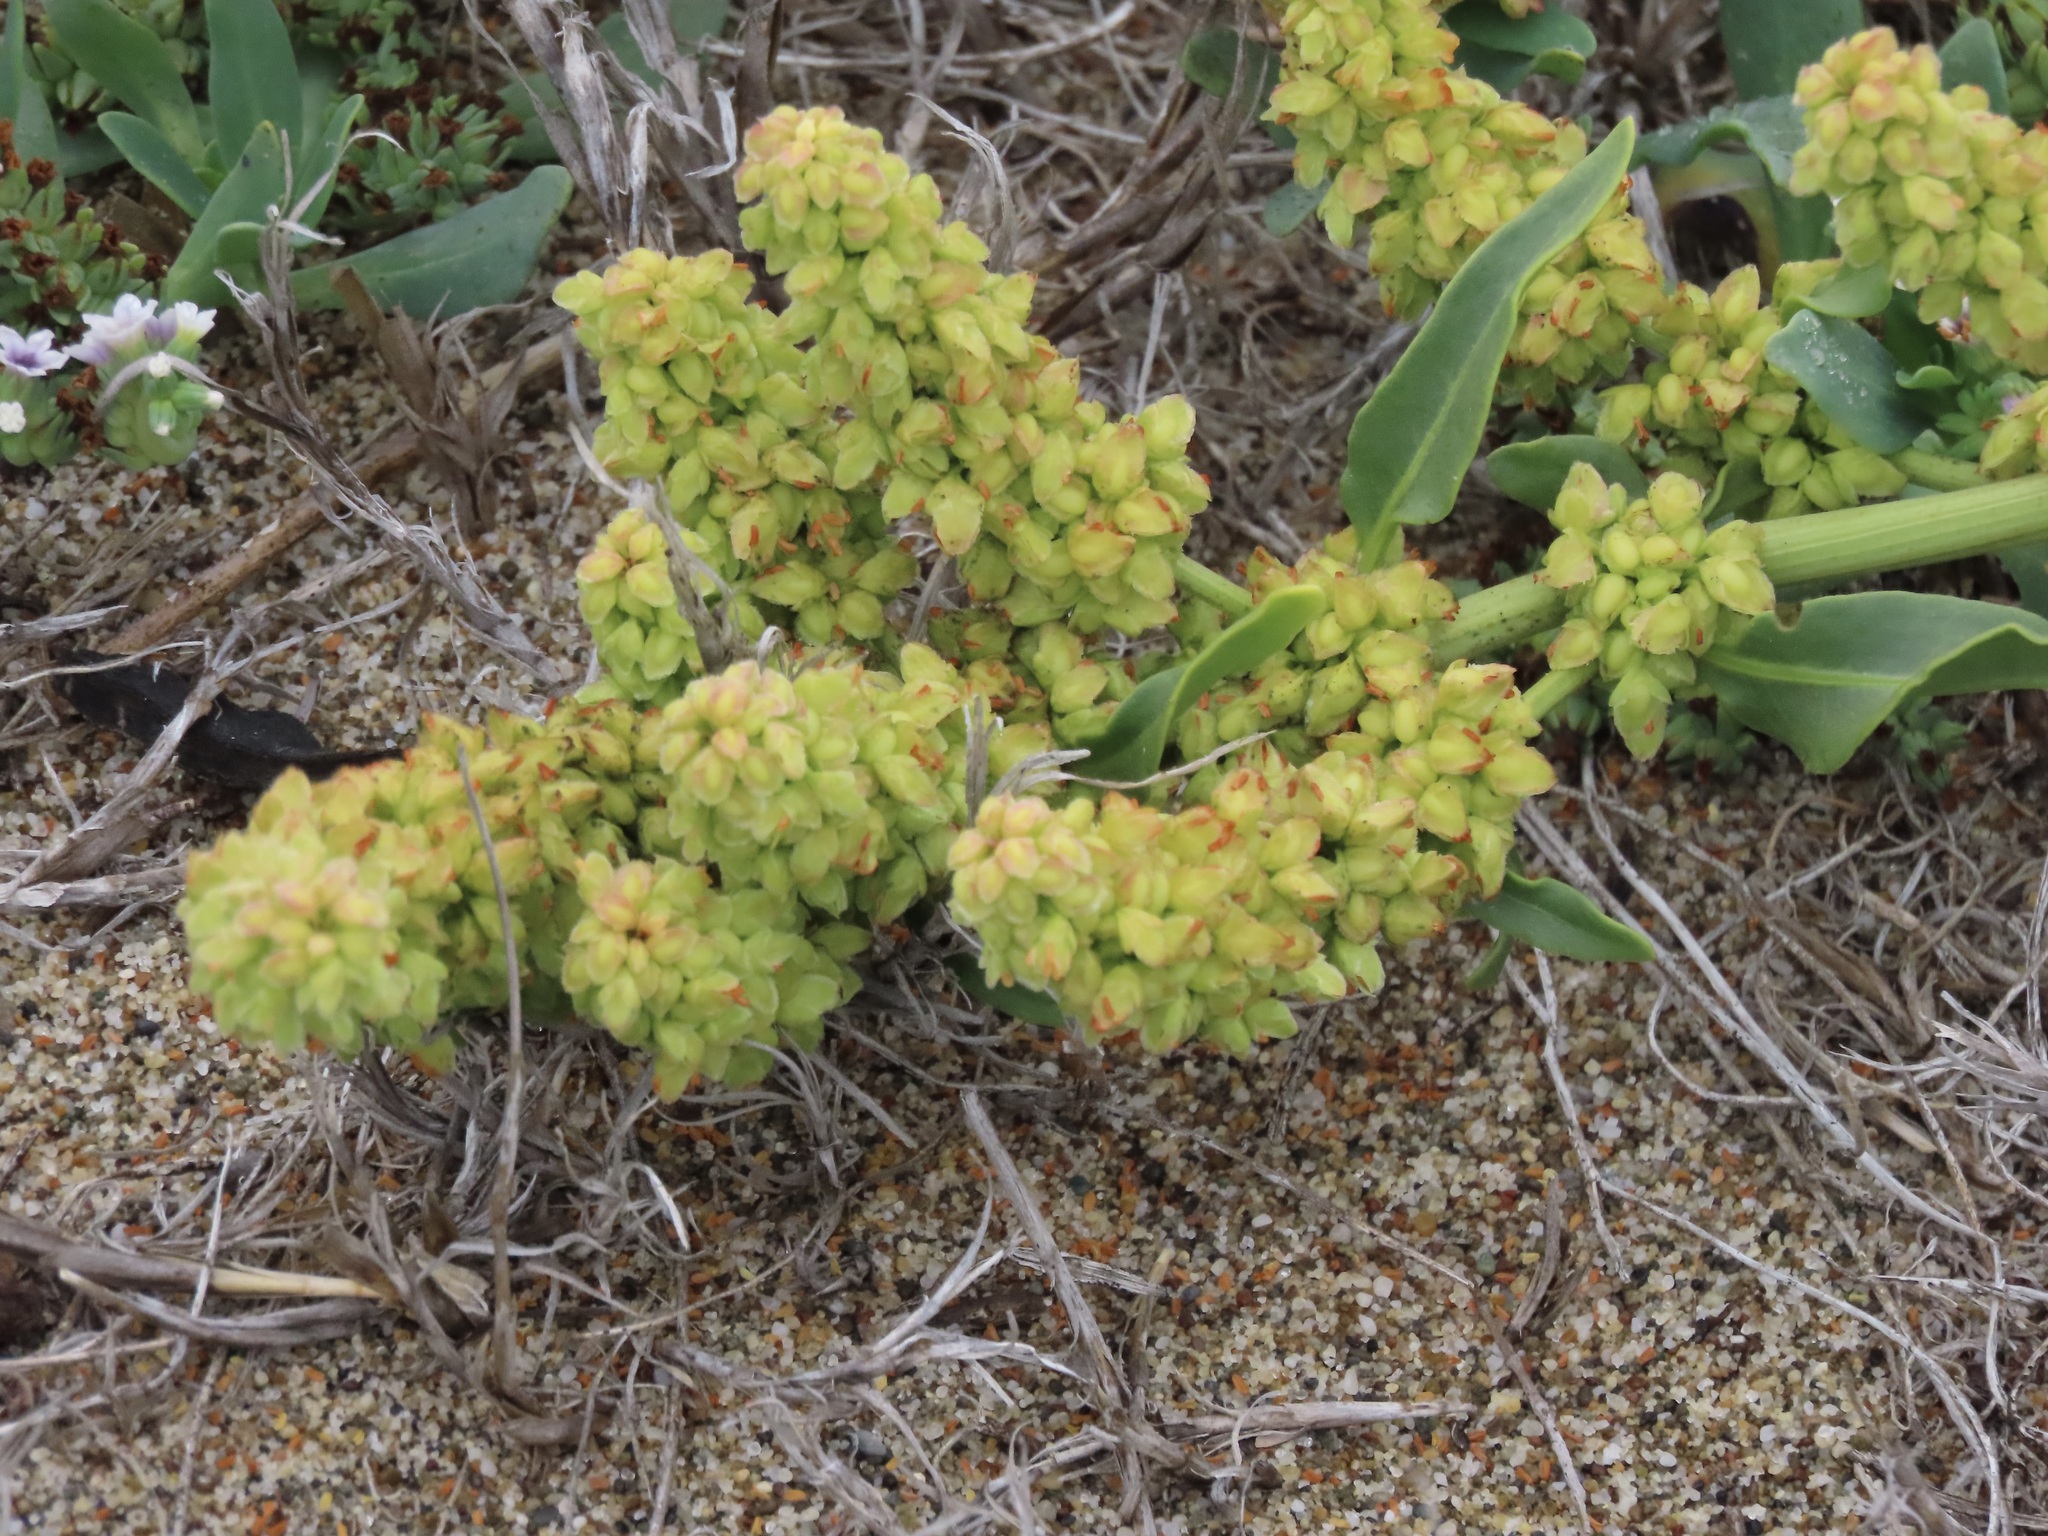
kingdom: Plantae
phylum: Tracheophyta
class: Magnoliopsida
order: Caryophyllales
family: Polygonaceae
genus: Rumex
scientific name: Rumex crassus
